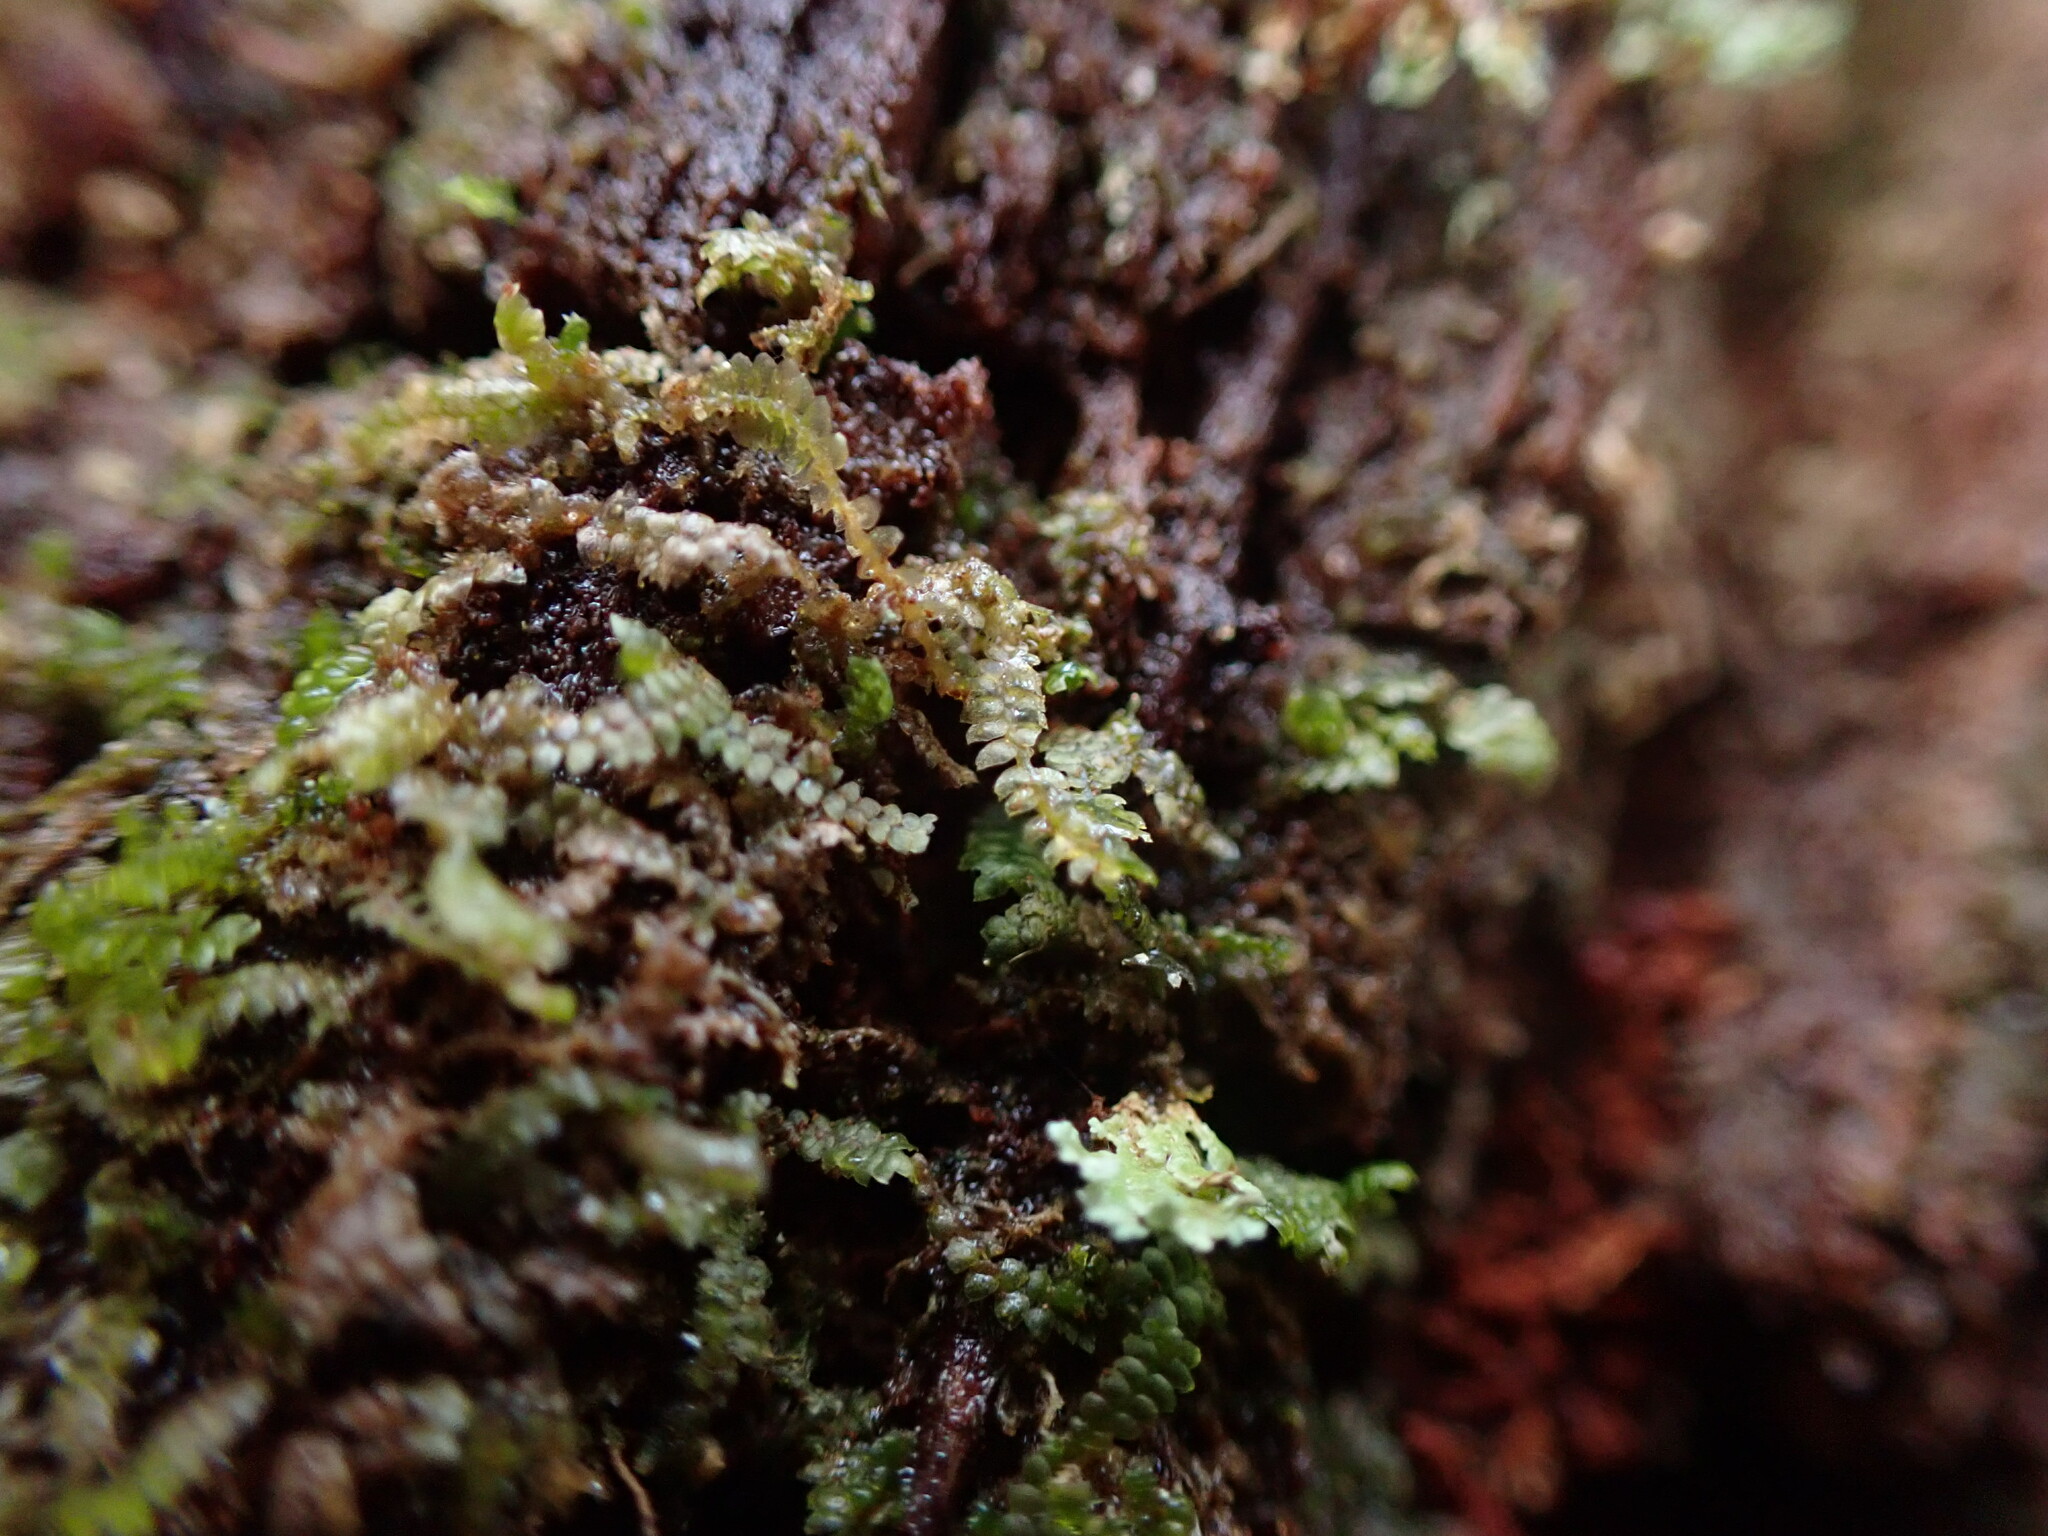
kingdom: Plantae
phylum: Marchantiophyta
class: Jungermanniopsida
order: Jungermanniales
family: Lepidoziaceae
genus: Bazzania
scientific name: Bazzania denudata
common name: Naked whipwort
